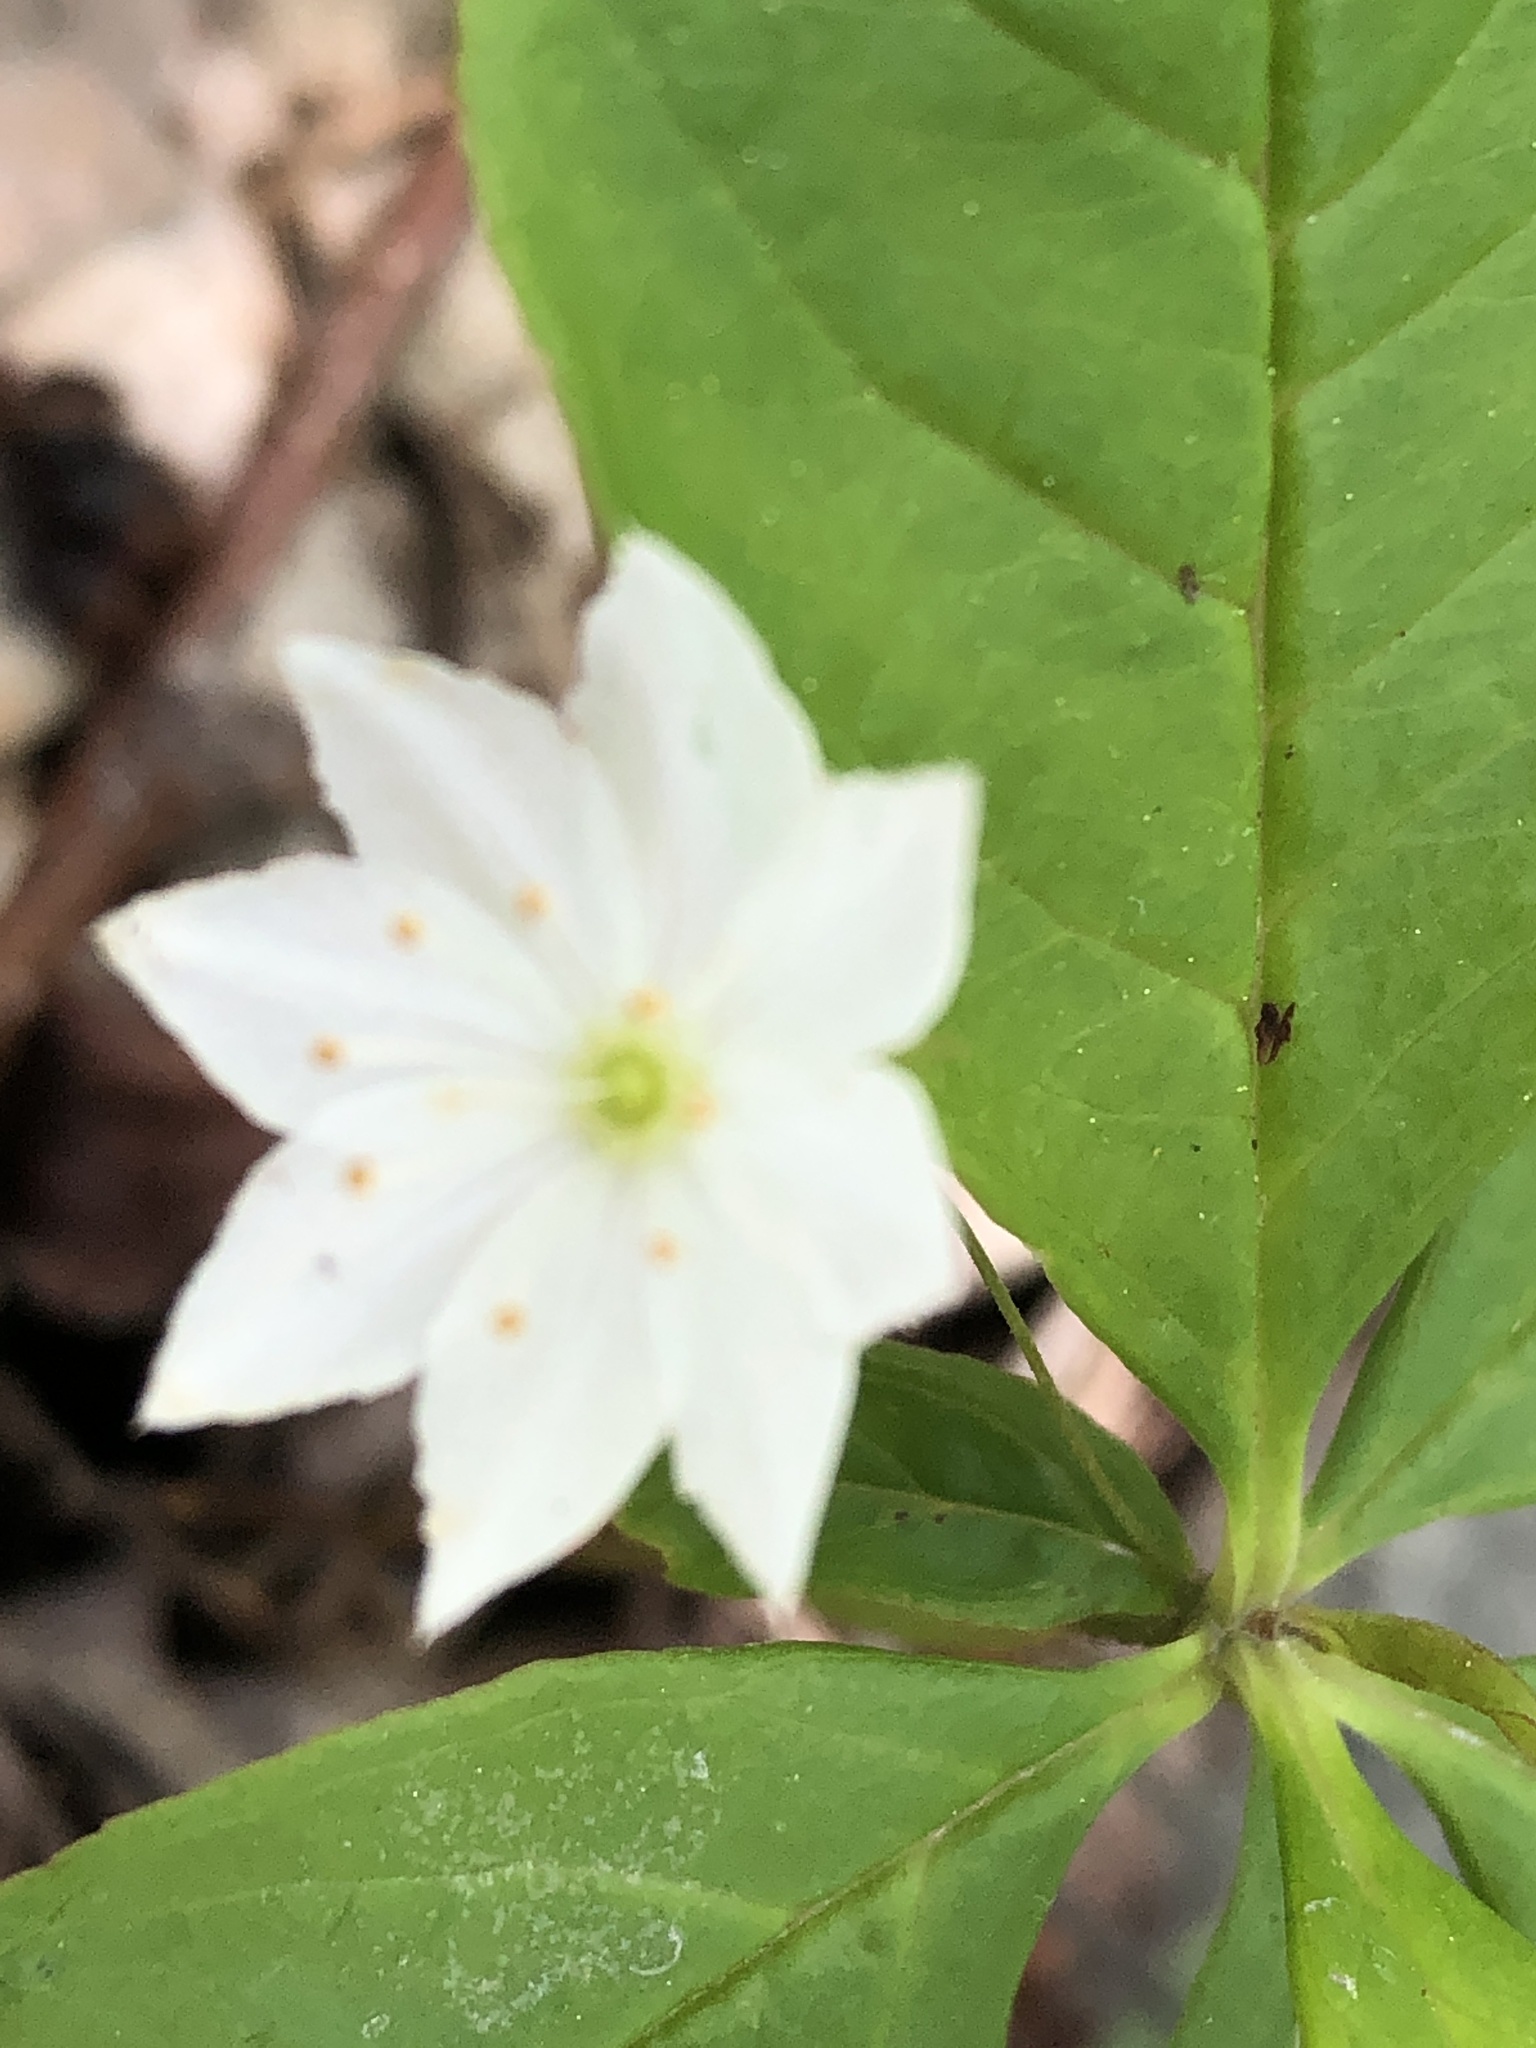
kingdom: Plantae
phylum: Tracheophyta
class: Magnoliopsida
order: Ericales
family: Primulaceae
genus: Lysimachia
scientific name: Lysimachia borealis
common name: American starflower
